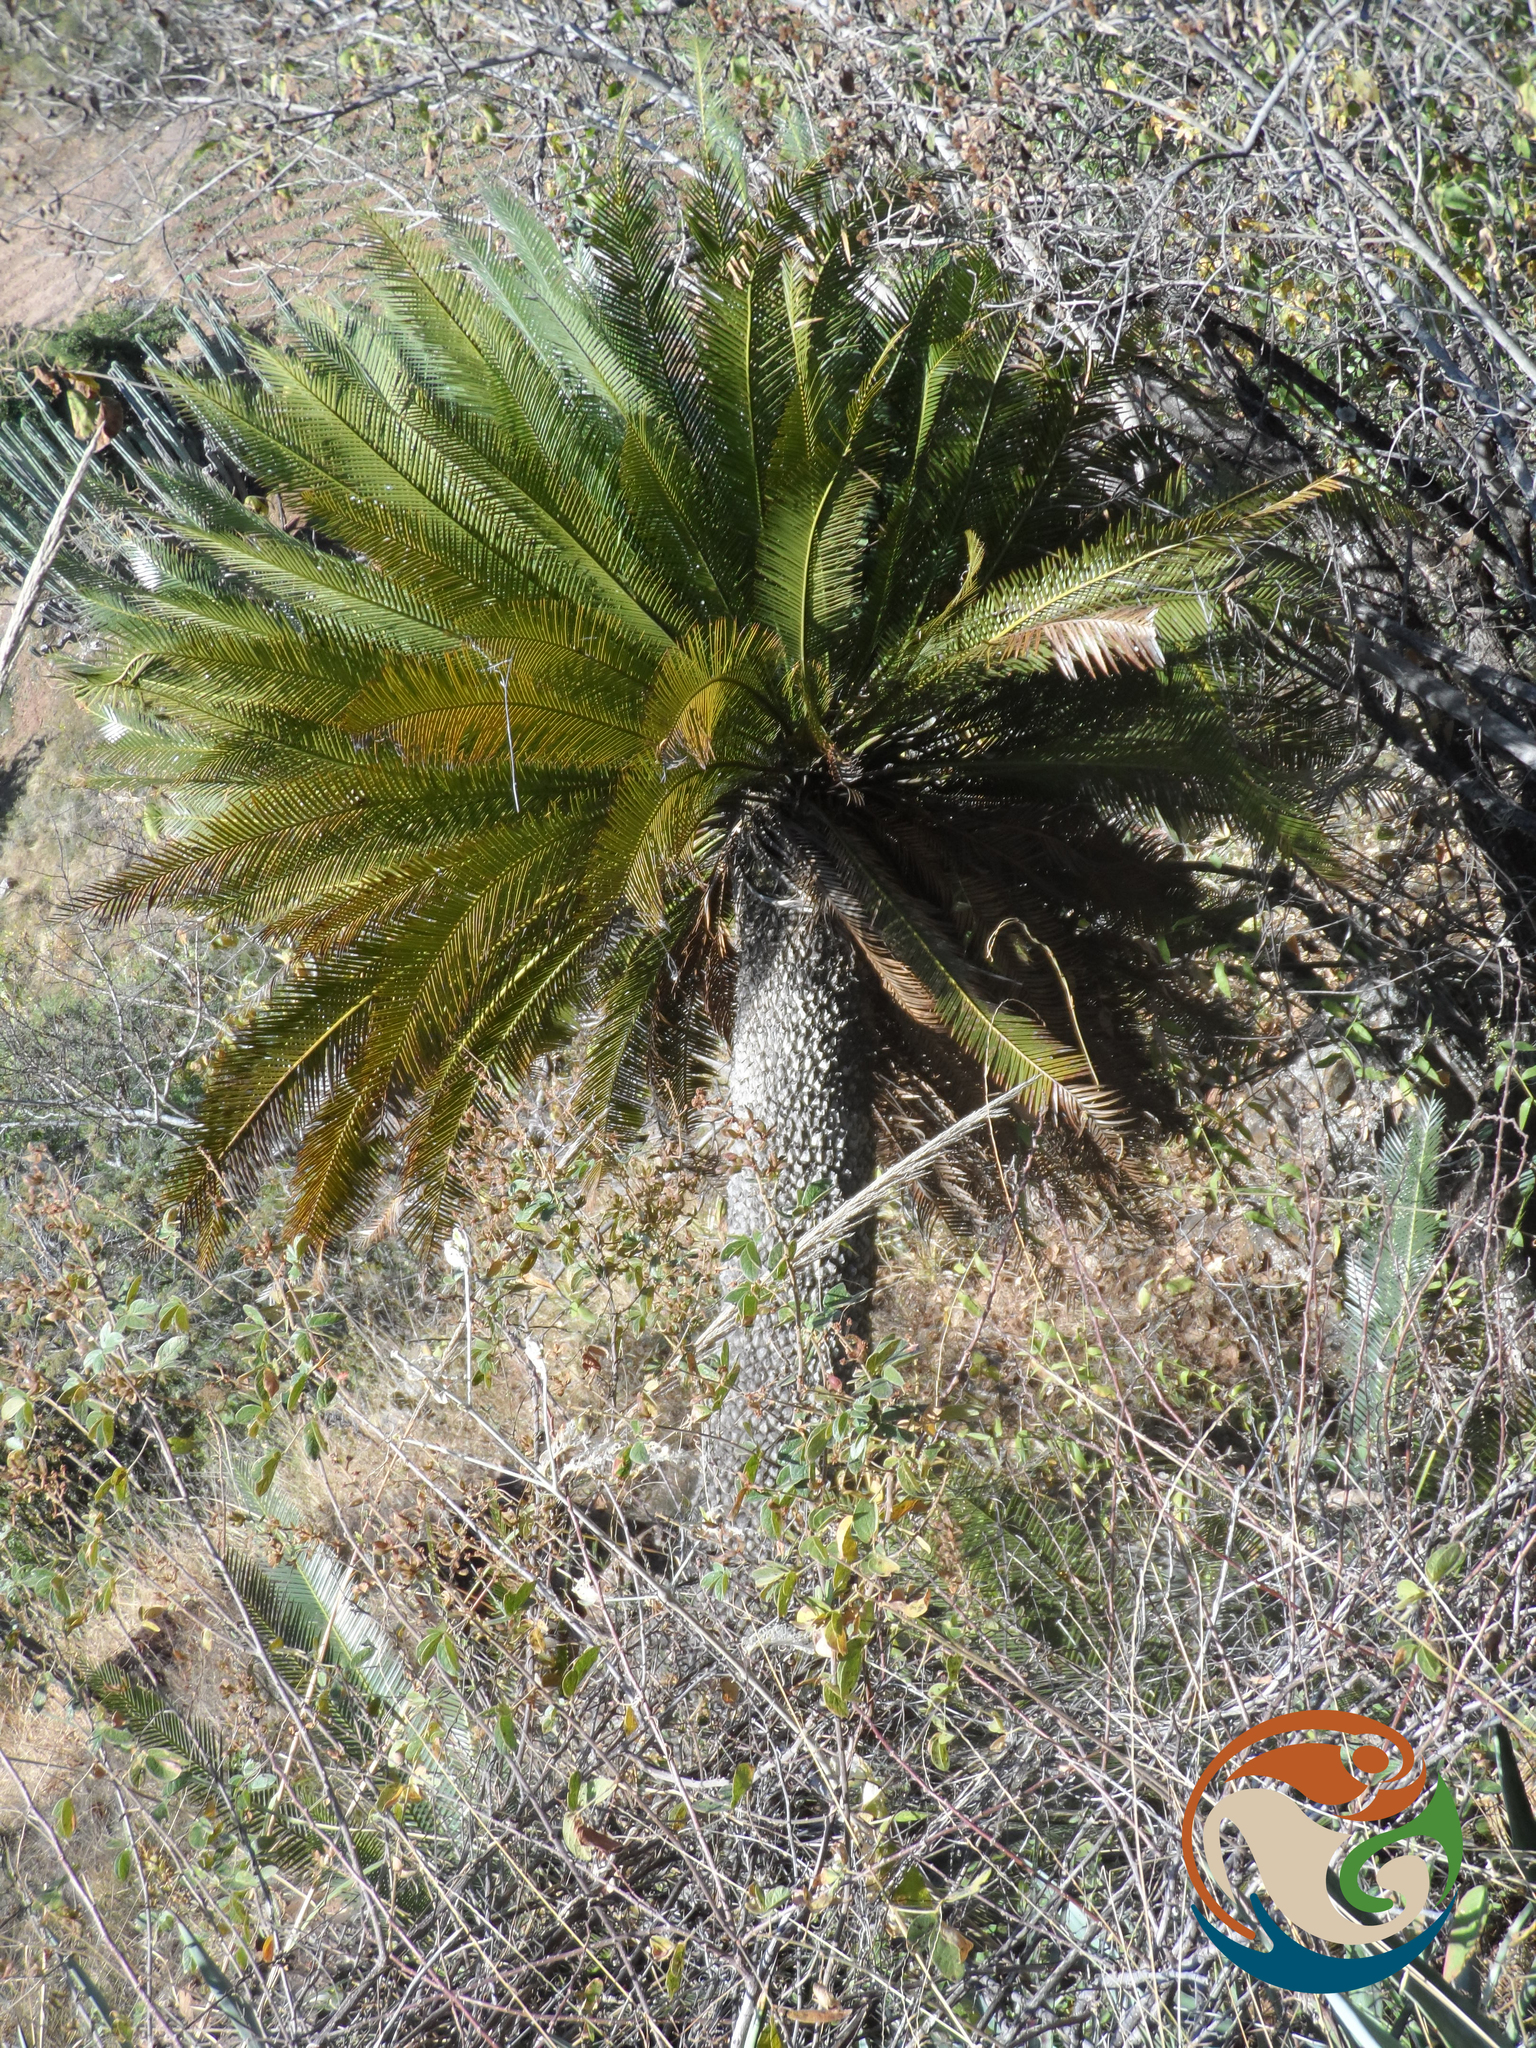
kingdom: Plantae
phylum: Tracheophyta
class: Cycadopsida
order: Cycadales
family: Zamiaceae
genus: Dioon
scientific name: Dioon planifolium
